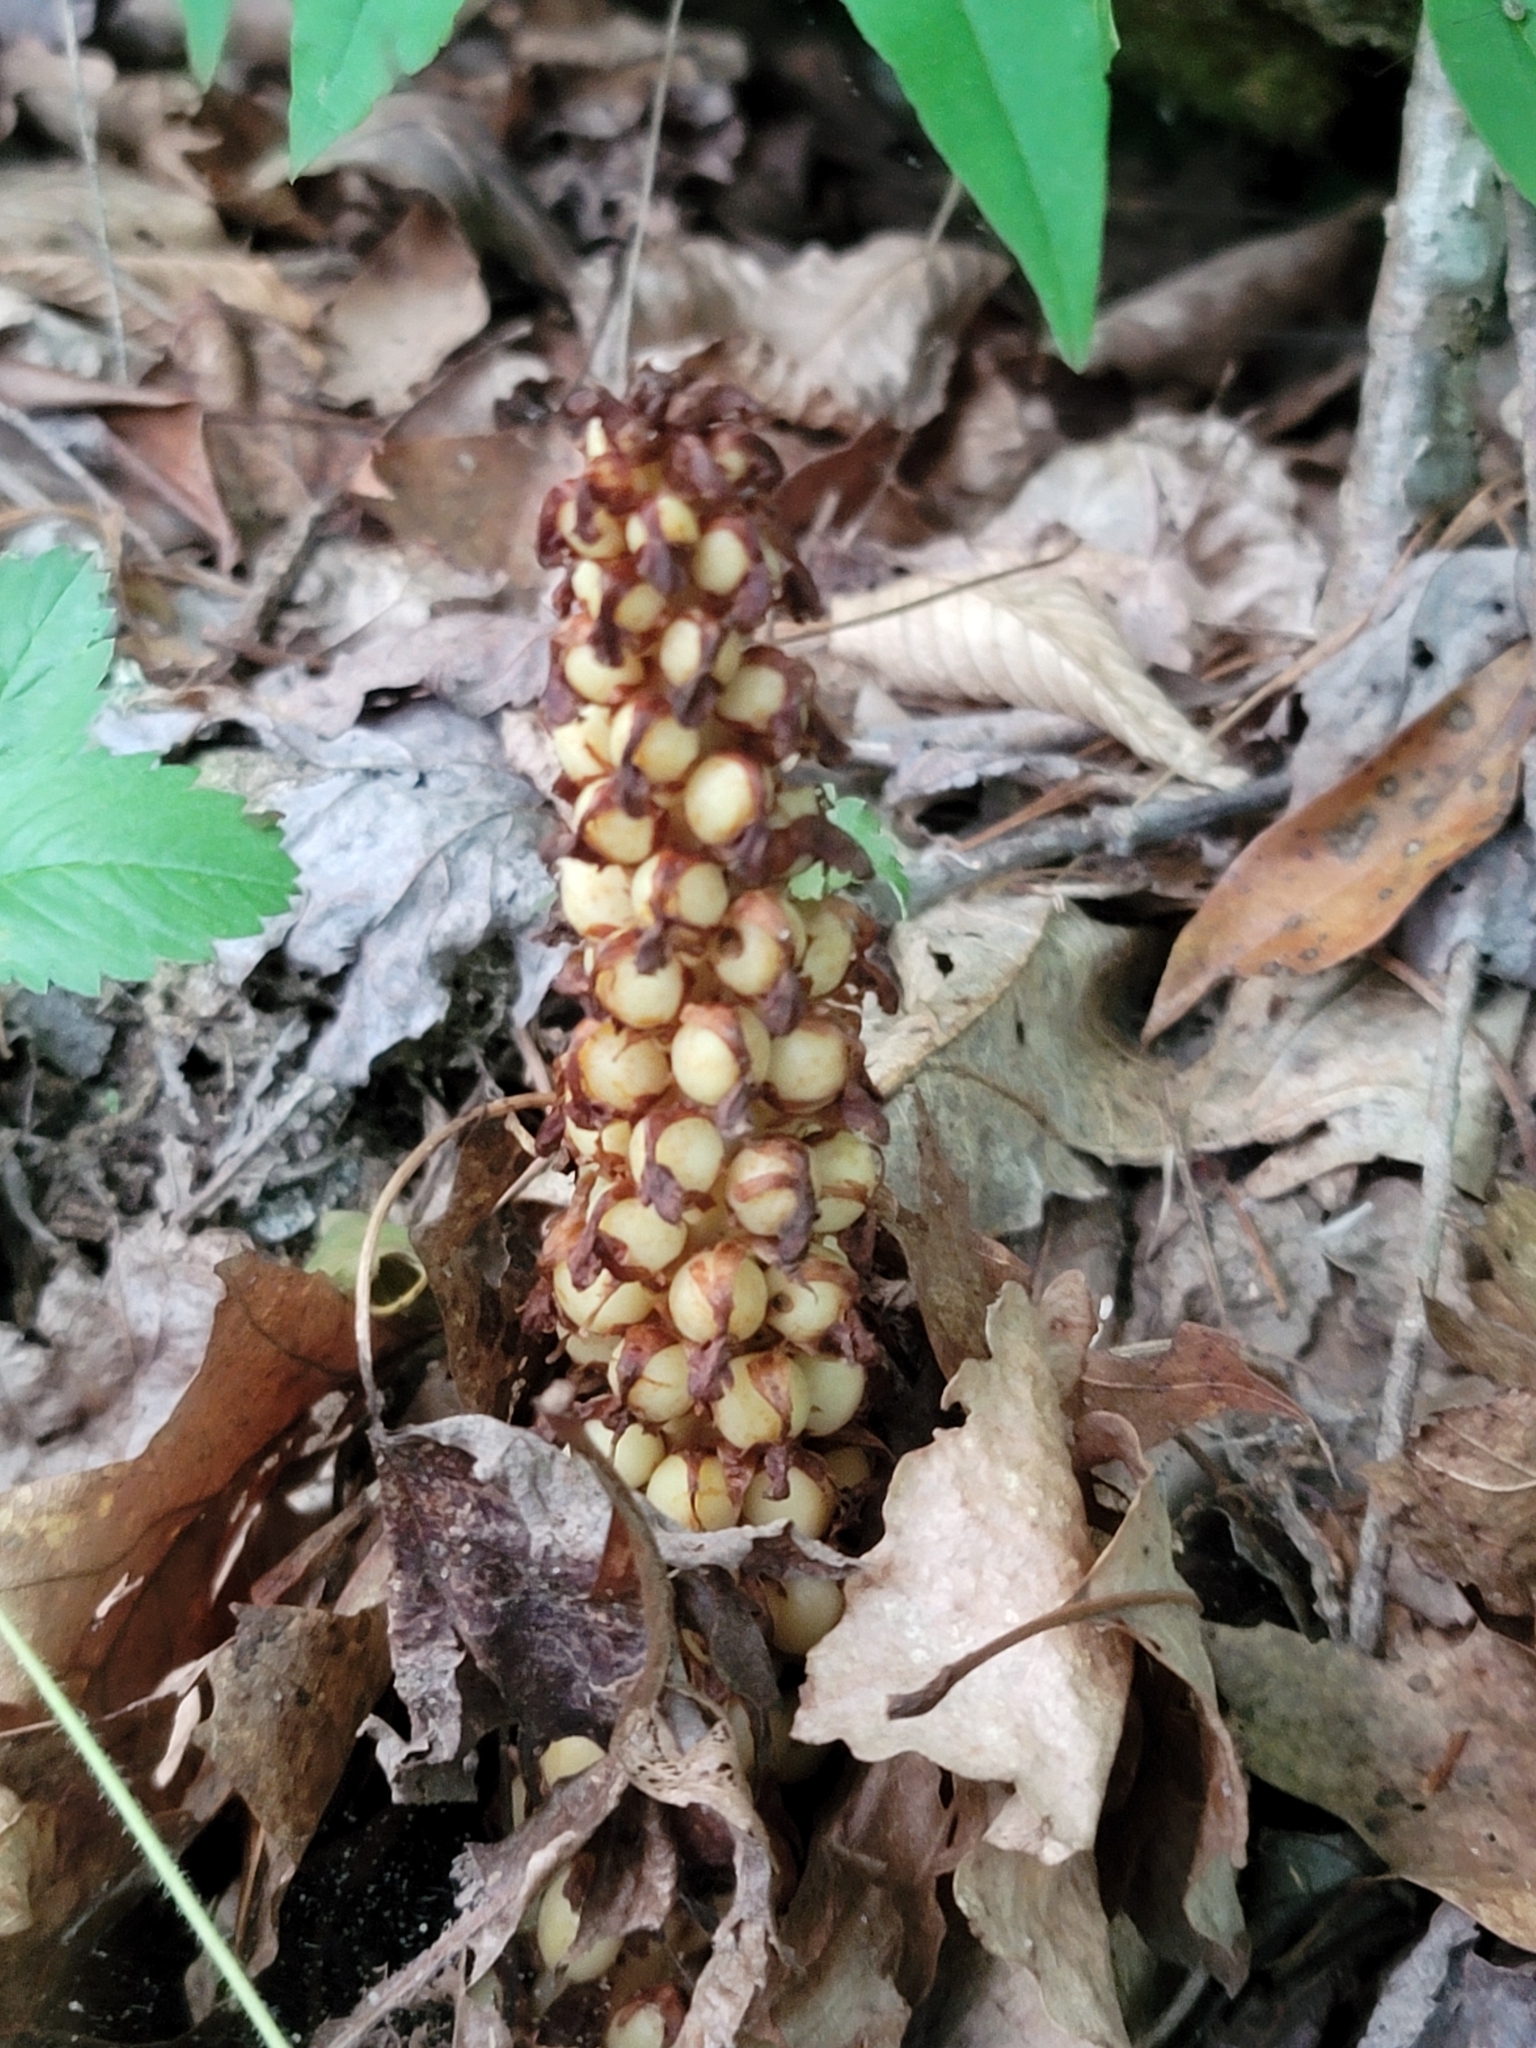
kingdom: Plantae
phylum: Tracheophyta
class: Magnoliopsida
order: Lamiales
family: Orobanchaceae
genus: Conopholis
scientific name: Conopholis americana
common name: American cancer-root
